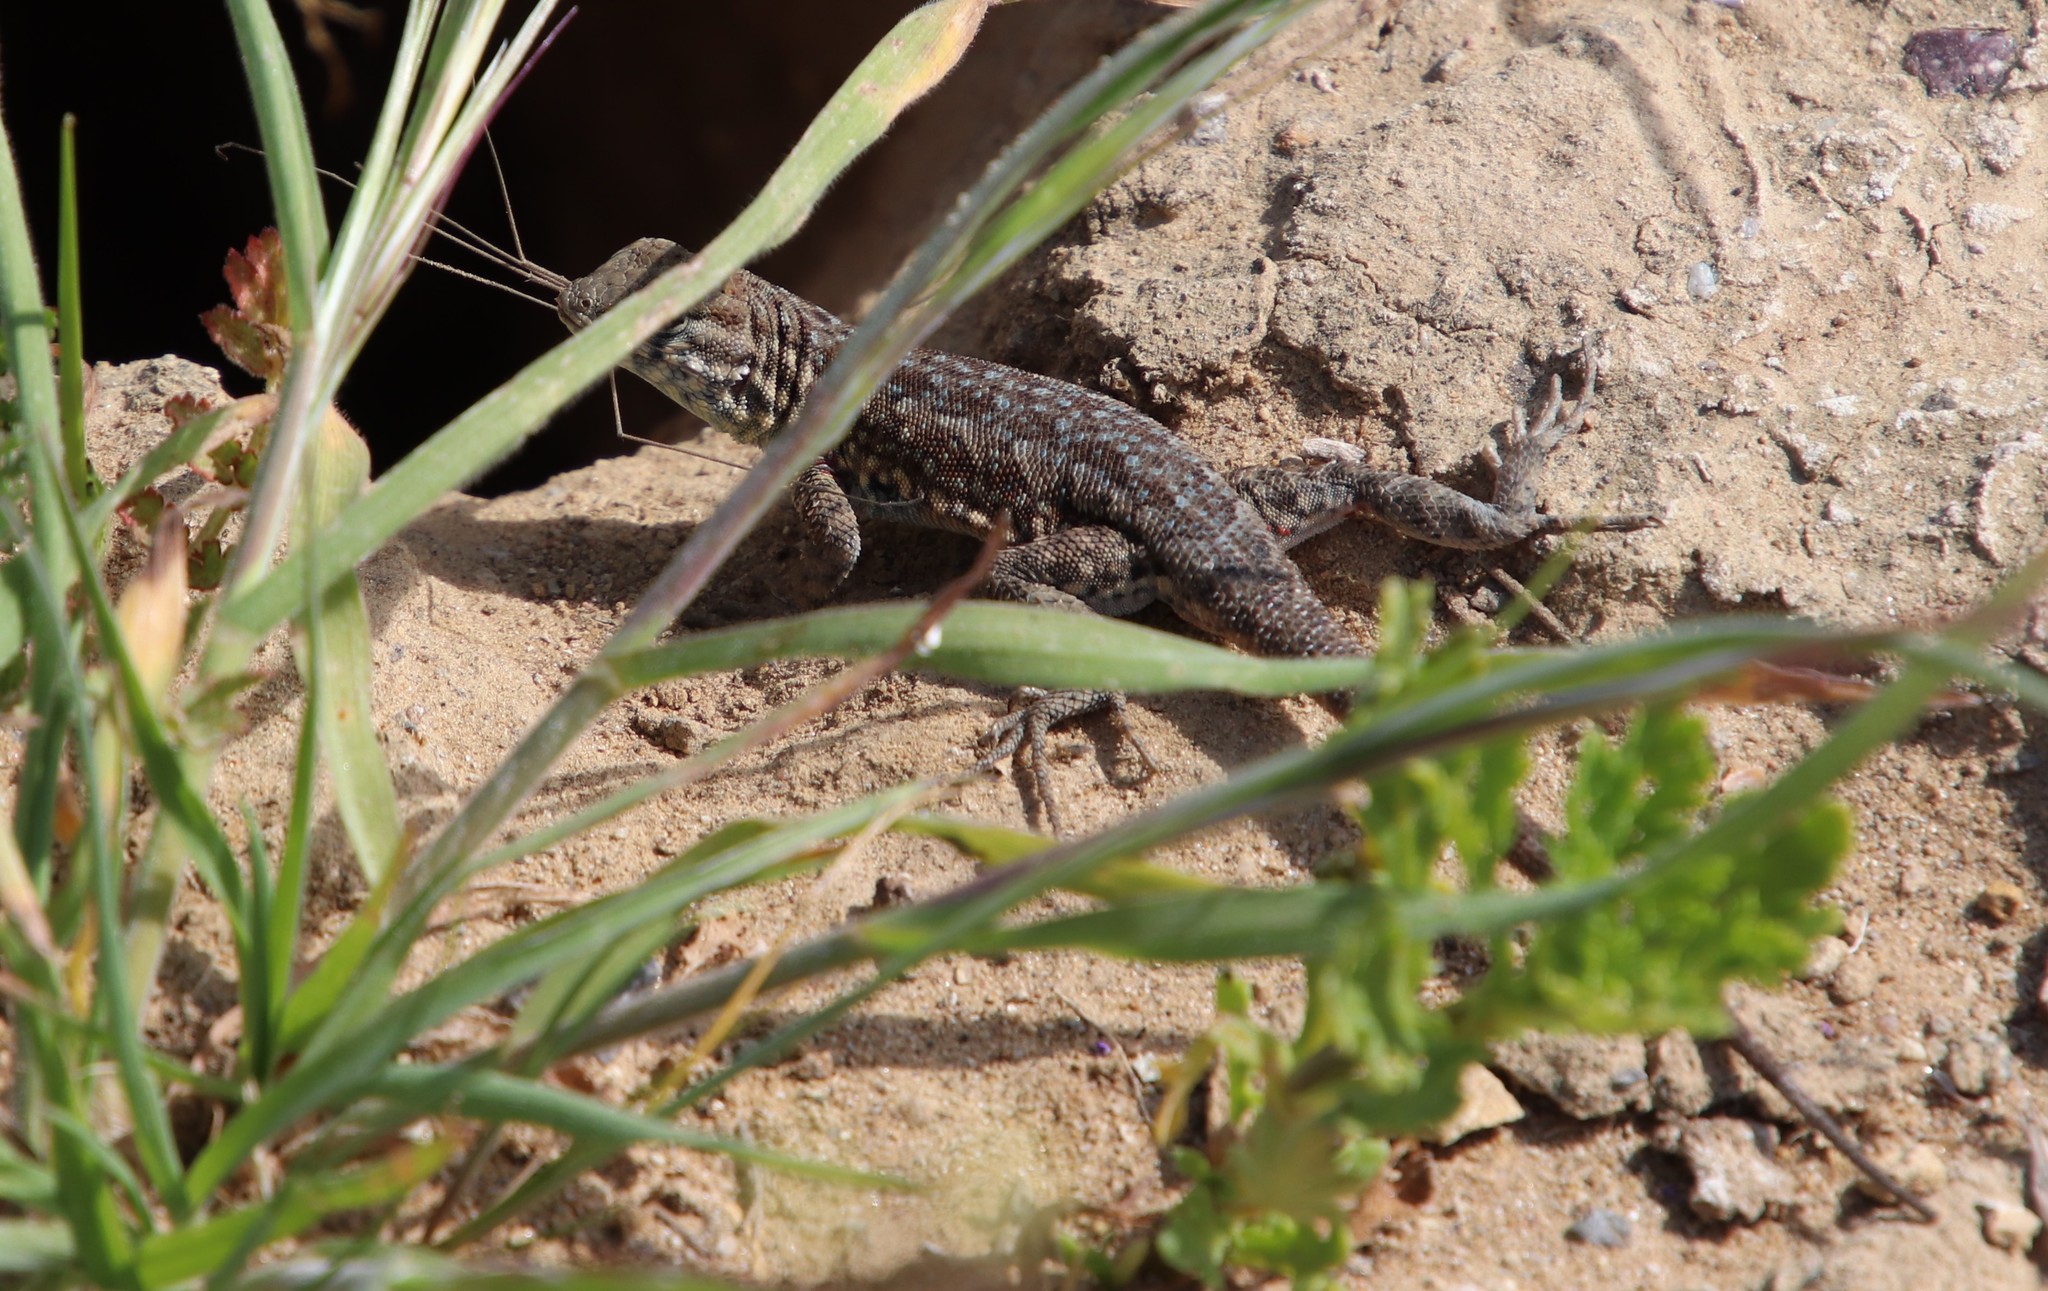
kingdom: Animalia
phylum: Chordata
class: Squamata
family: Phrynosomatidae
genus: Uta
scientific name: Uta stansburiana
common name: Side-blotched lizard
